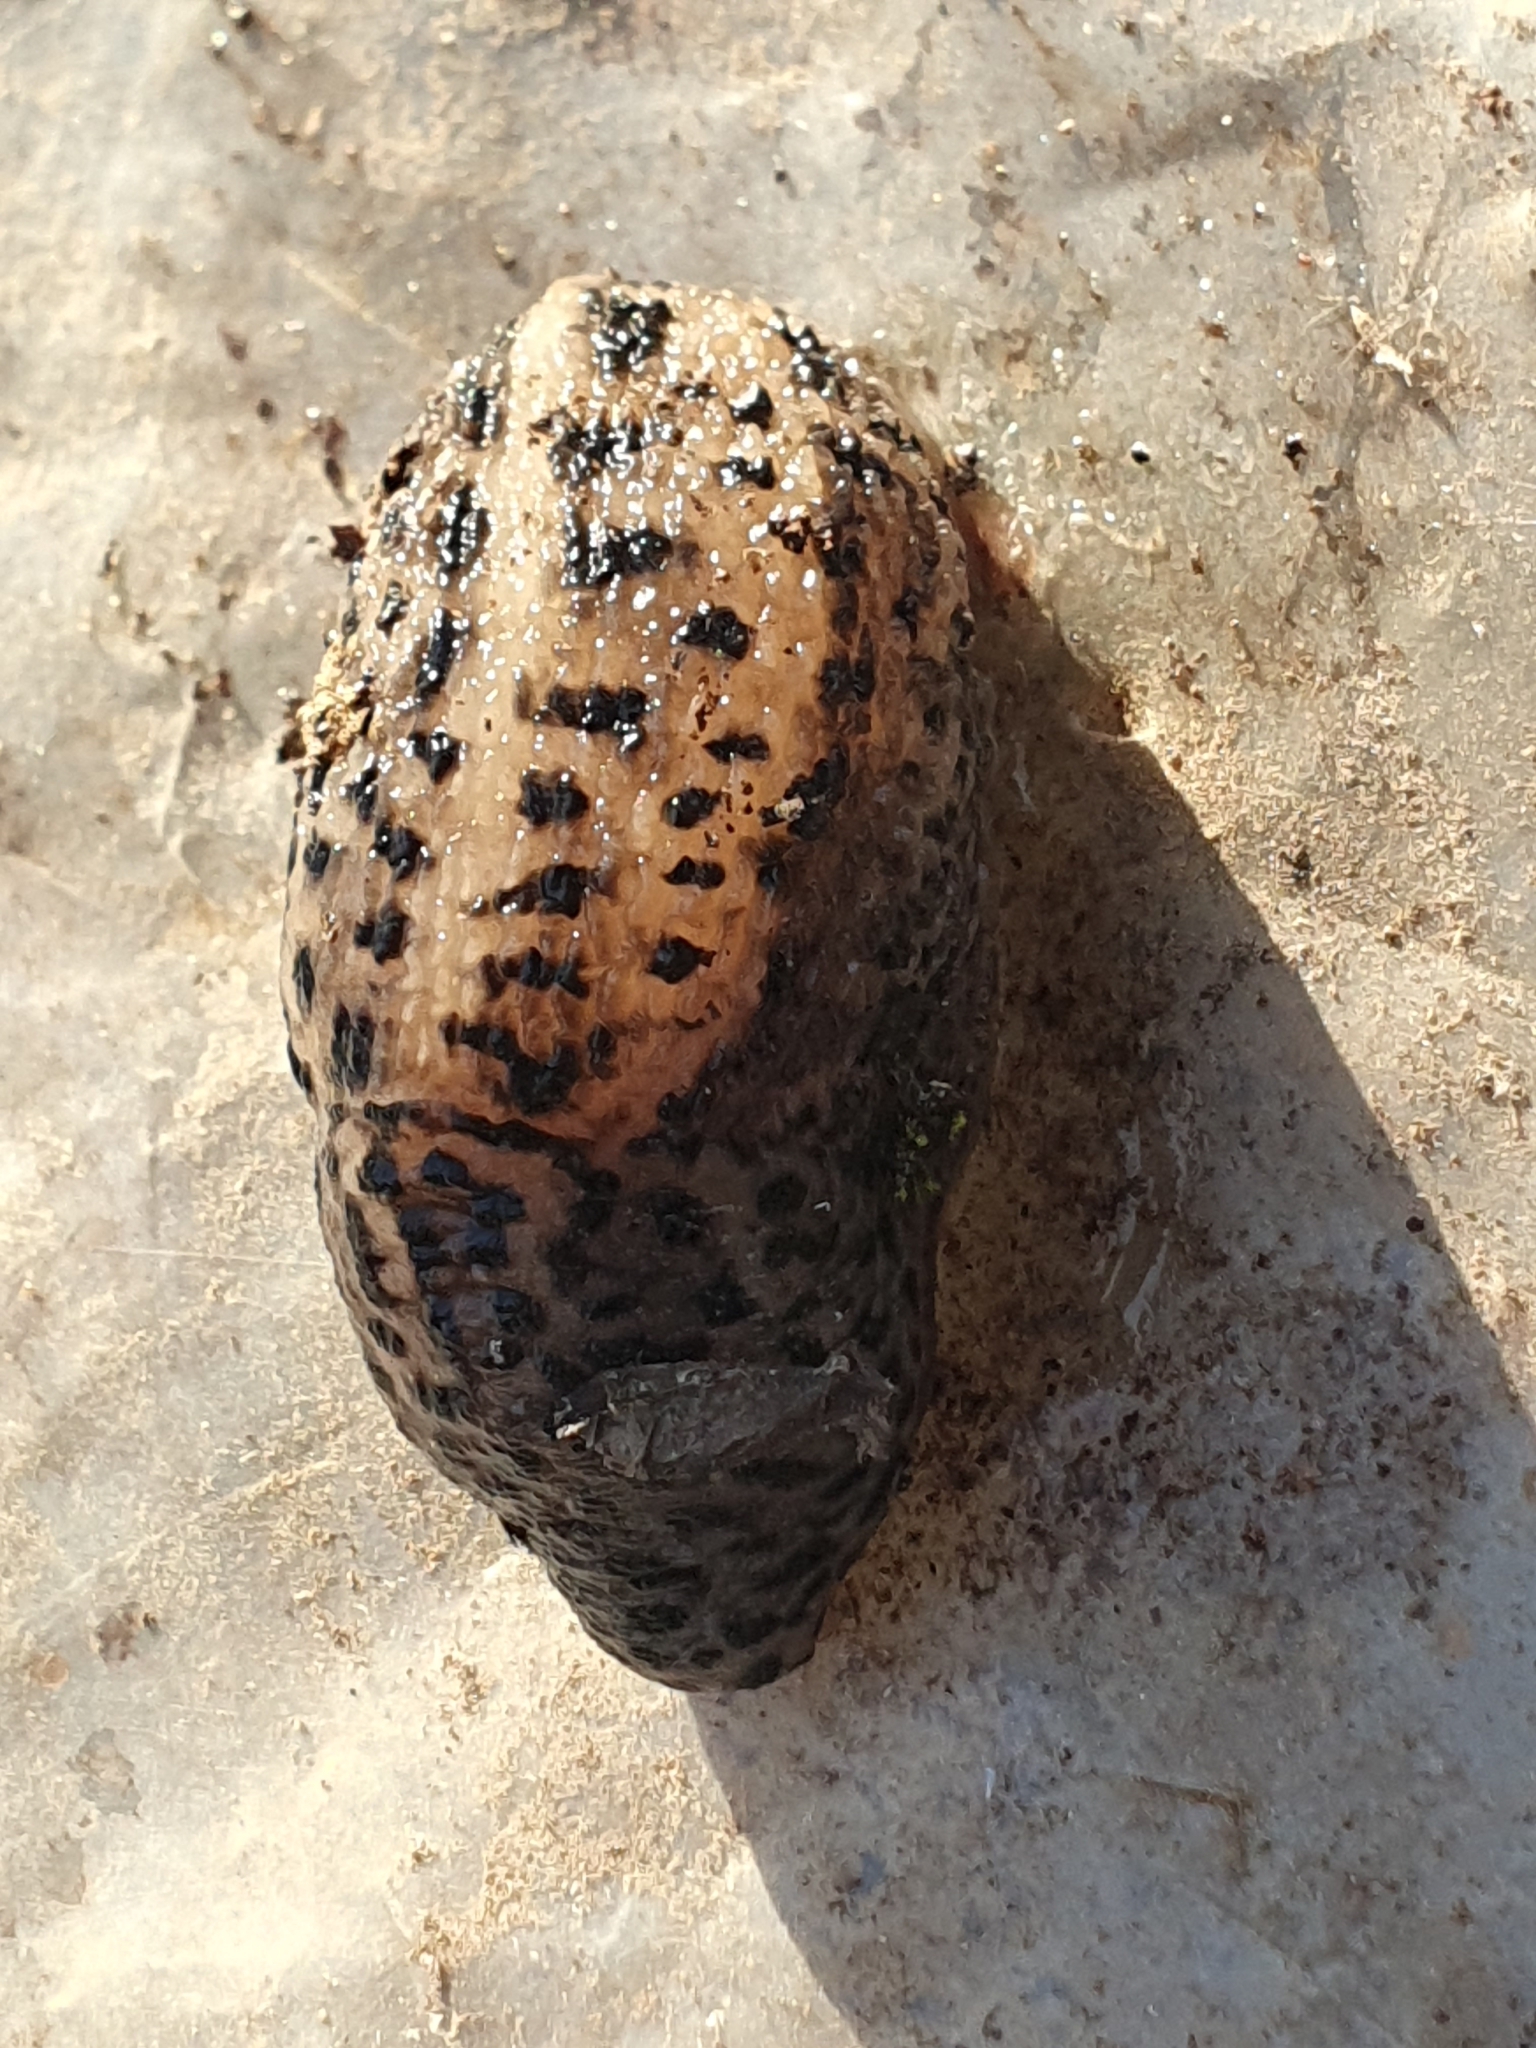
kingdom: Animalia
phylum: Mollusca
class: Gastropoda
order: Stylommatophora
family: Limacidae
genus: Limax
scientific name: Limax maximus
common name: Great grey slug
